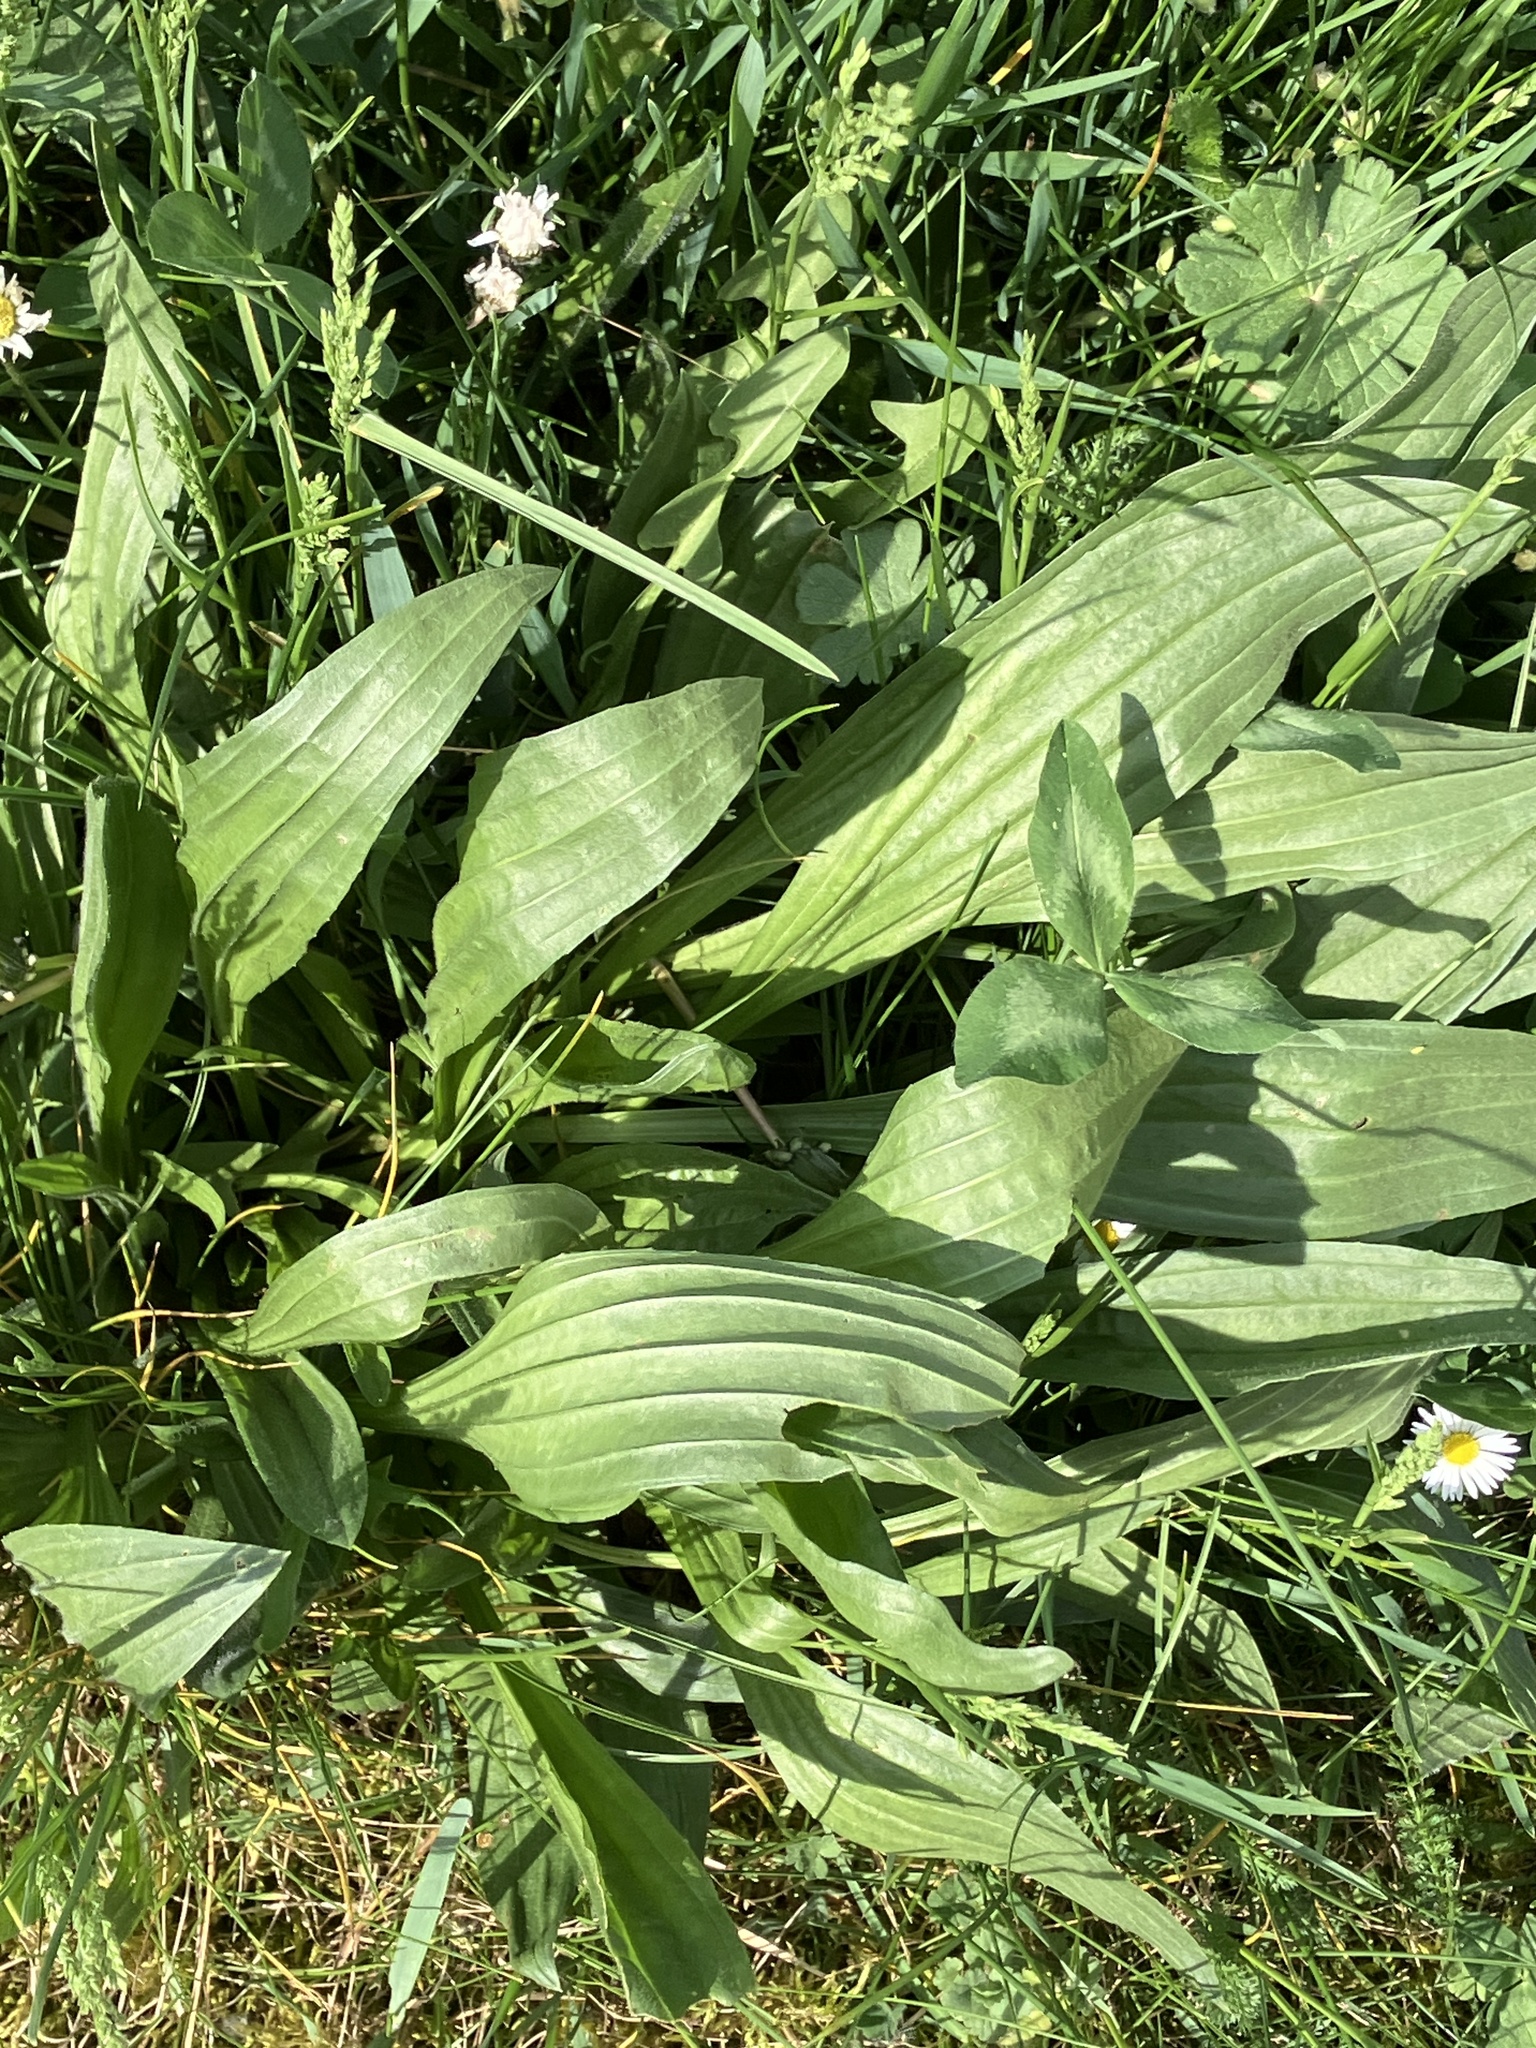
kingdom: Plantae
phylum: Tracheophyta
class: Magnoliopsida
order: Lamiales
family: Plantaginaceae
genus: Plantago
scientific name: Plantago lanceolata
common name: Ribwort plantain
